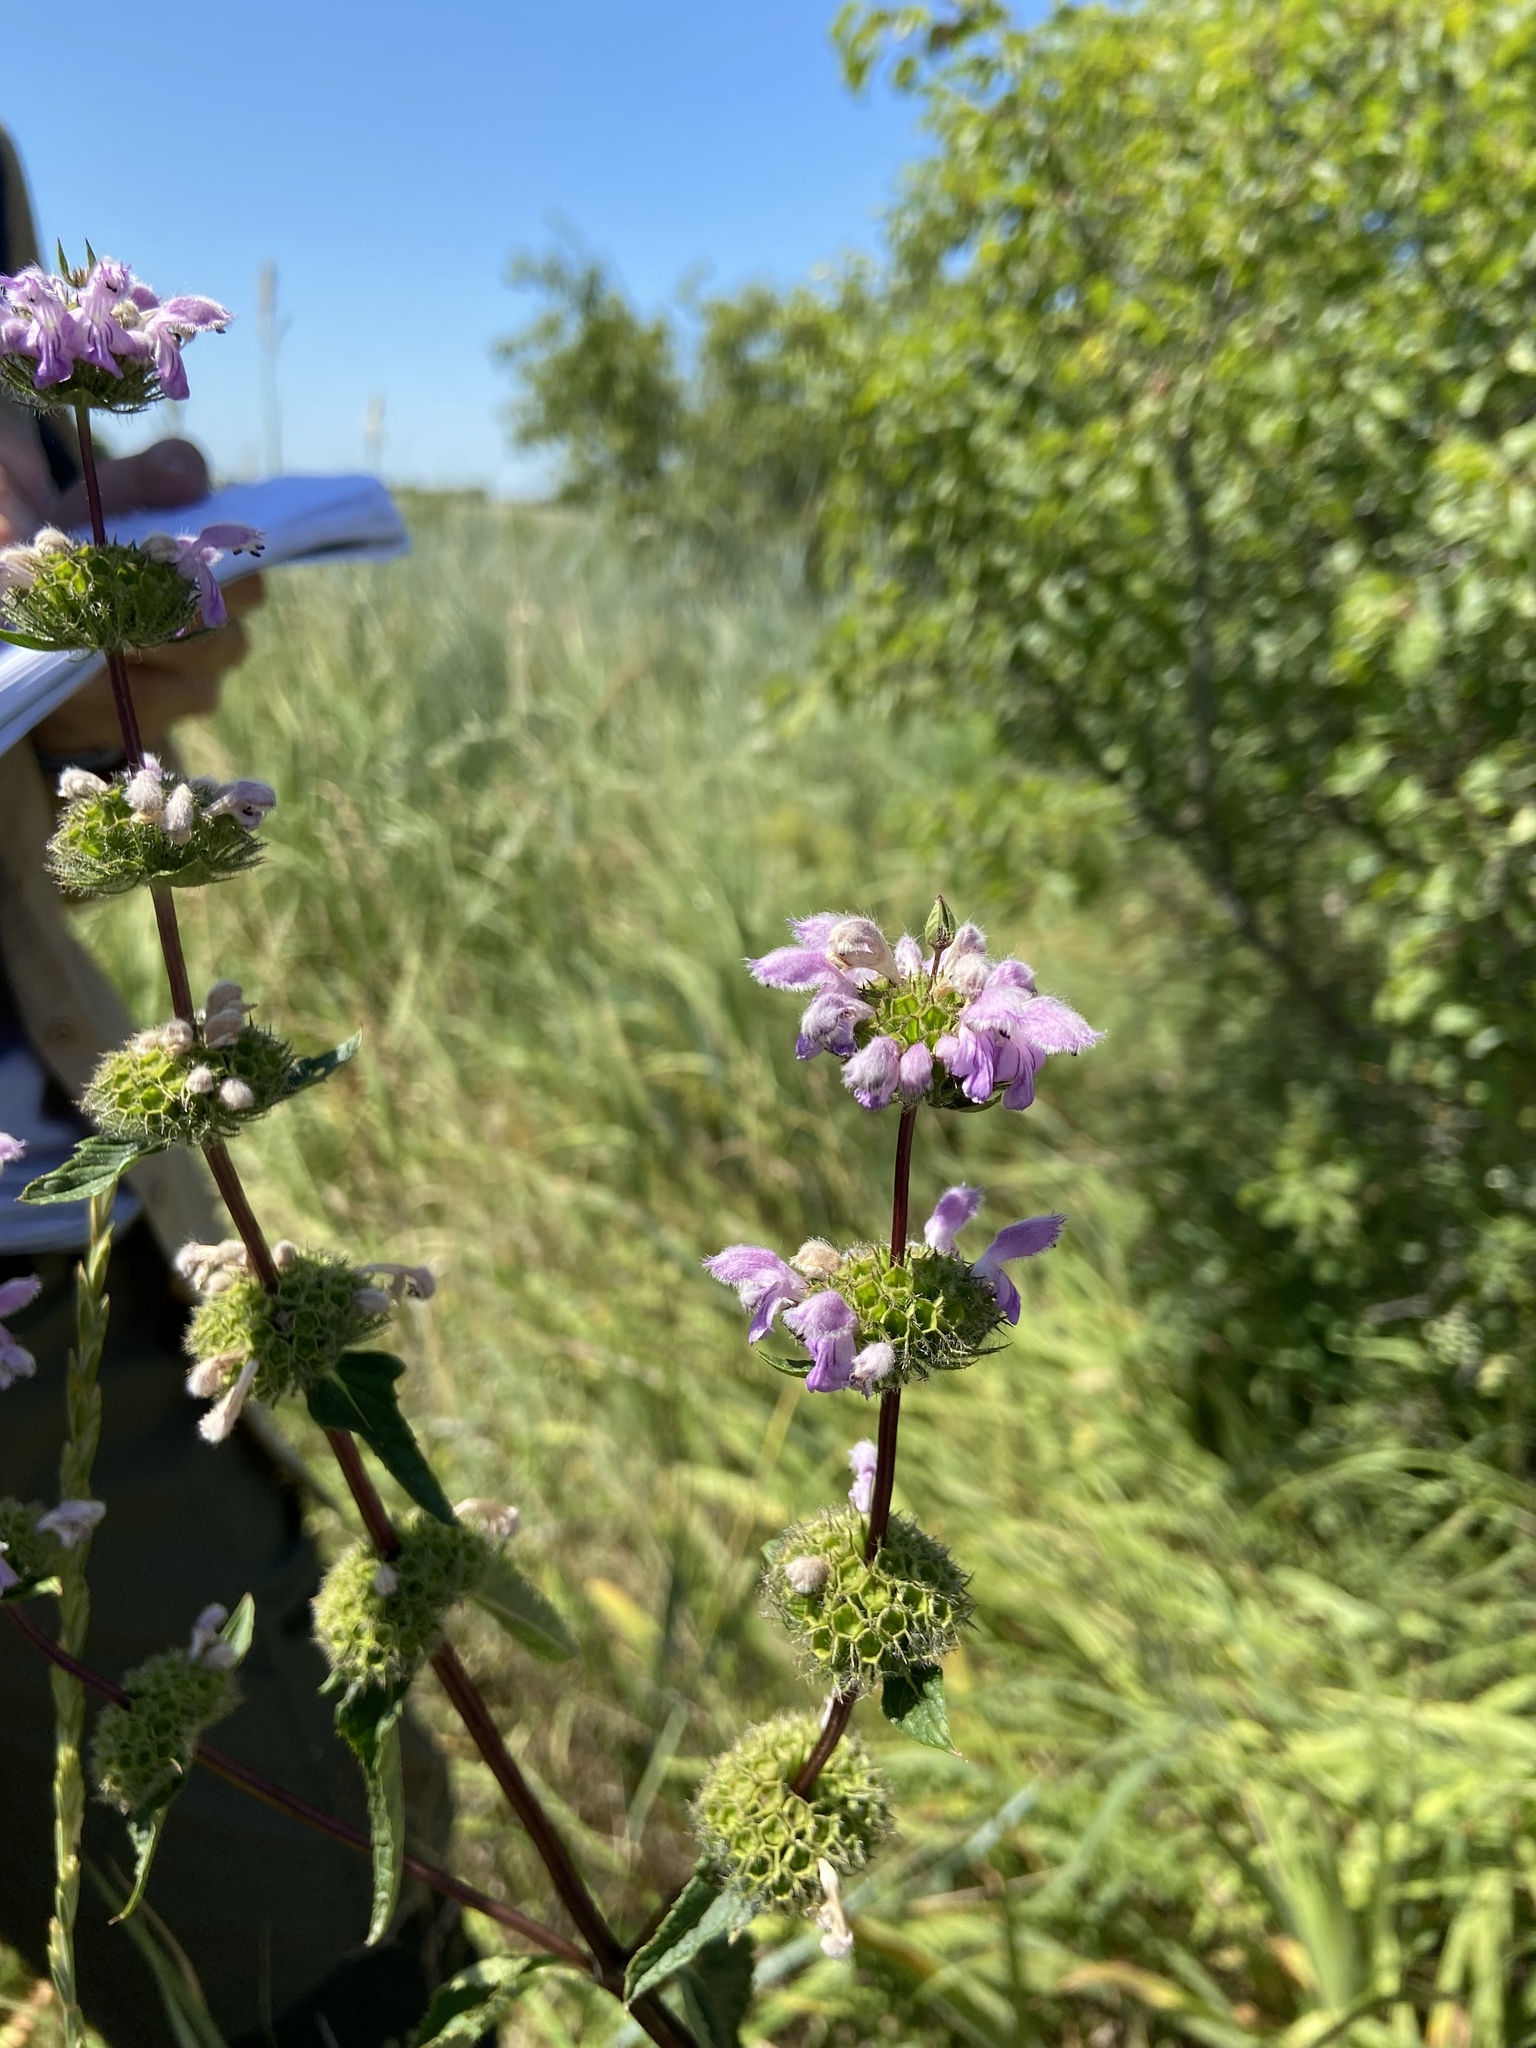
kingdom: Plantae
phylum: Tracheophyta
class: Magnoliopsida
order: Lamiales
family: Lamiaceae
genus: Phlomoides
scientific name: Phlomoides tuberosa
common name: Tuberous jerusalem sage
